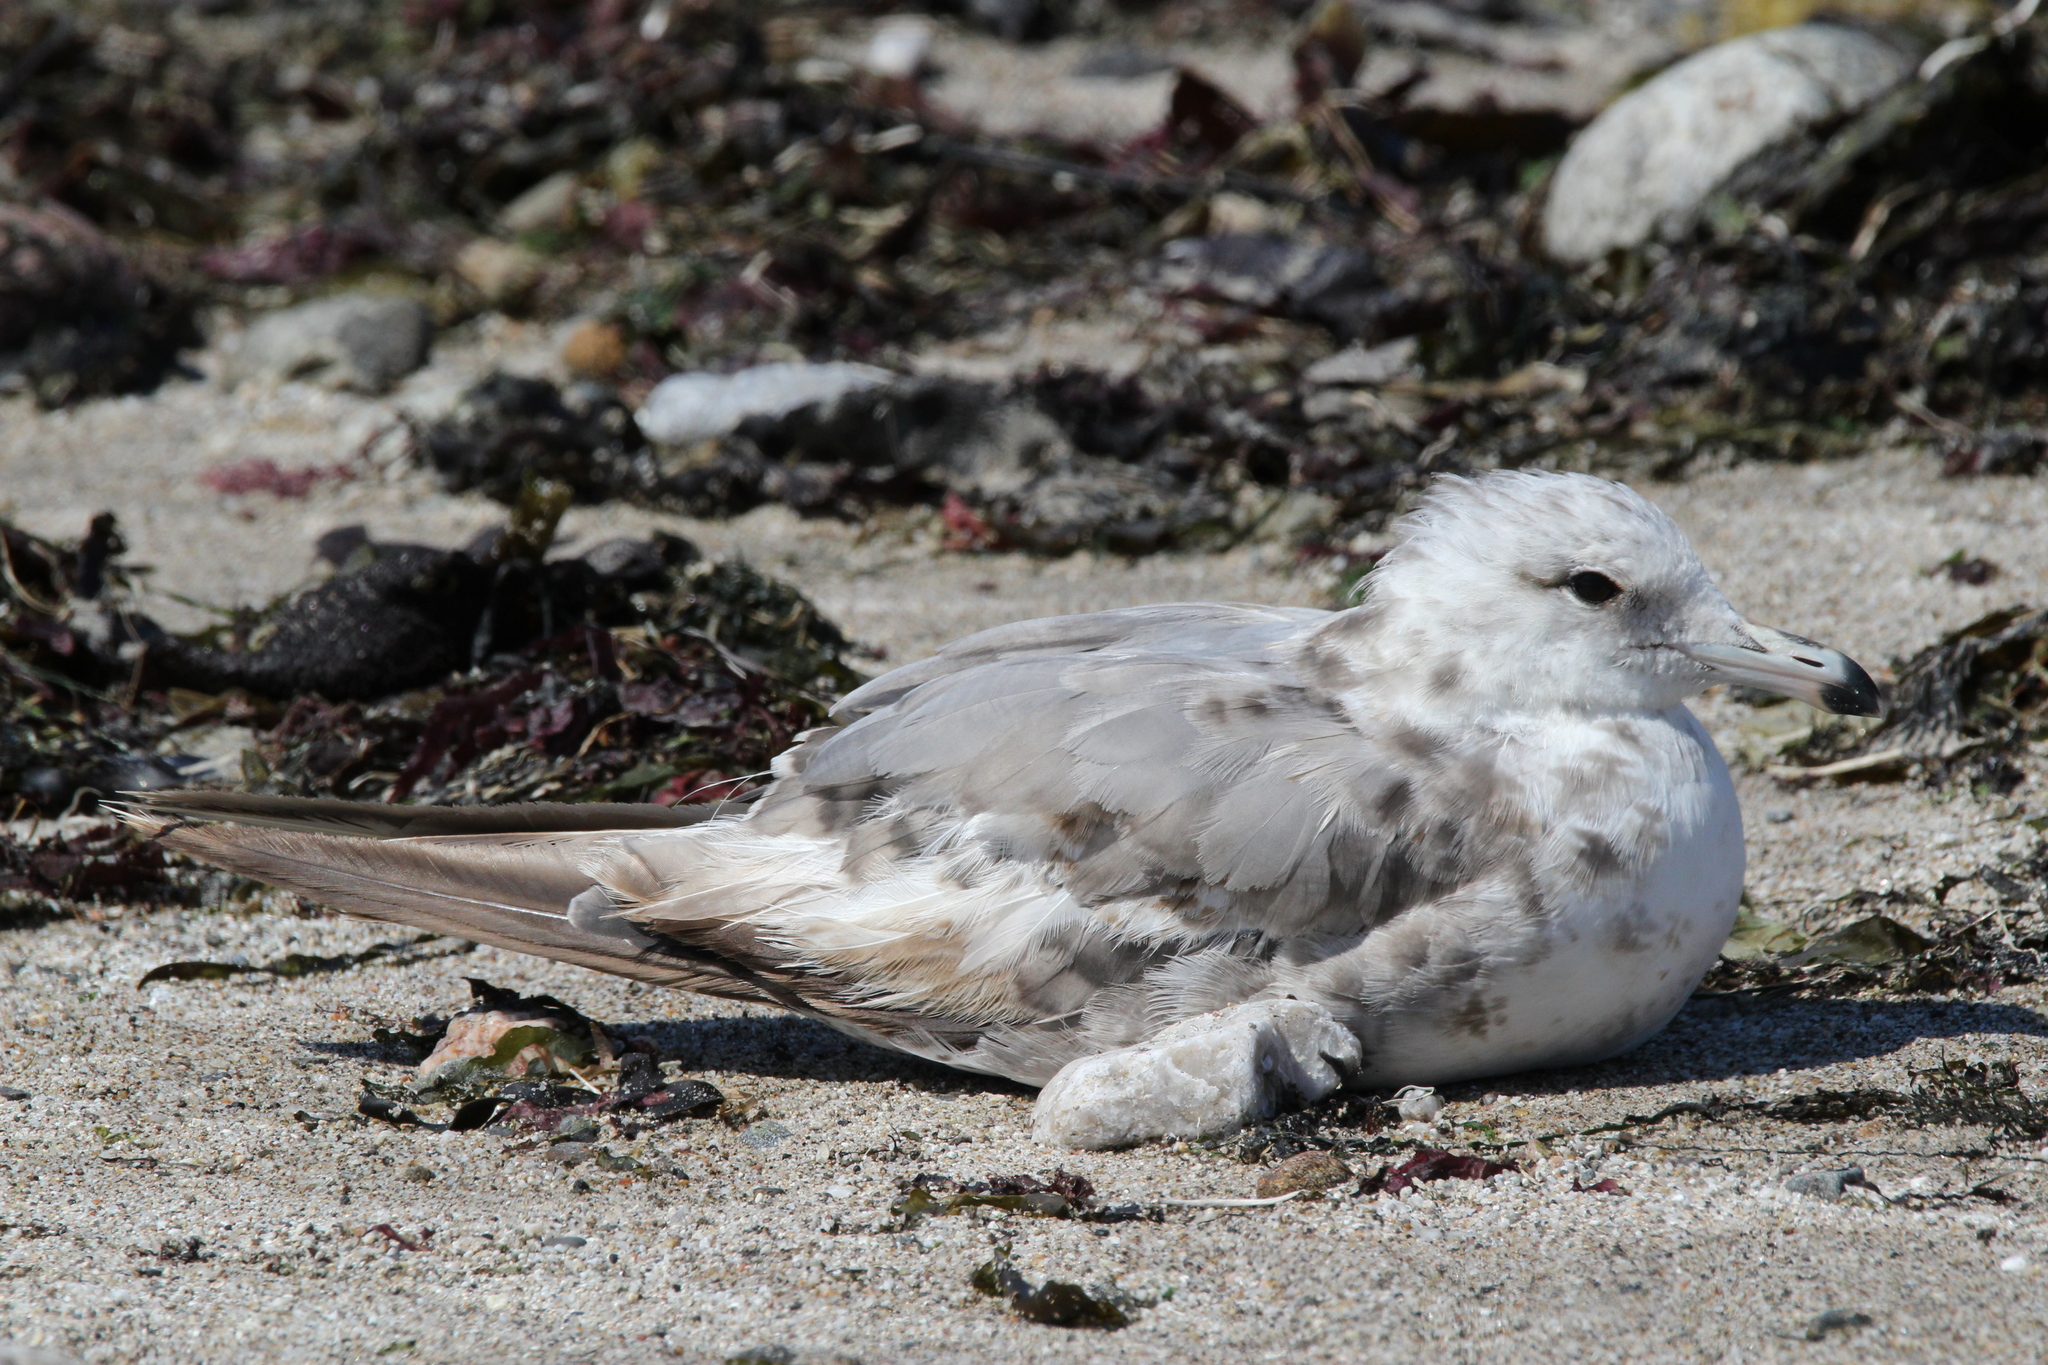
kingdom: Animalia
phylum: Chordata
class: Aves
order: Charadriiformes
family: Laridae
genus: Larus
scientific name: Larus californicus
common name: California gull
